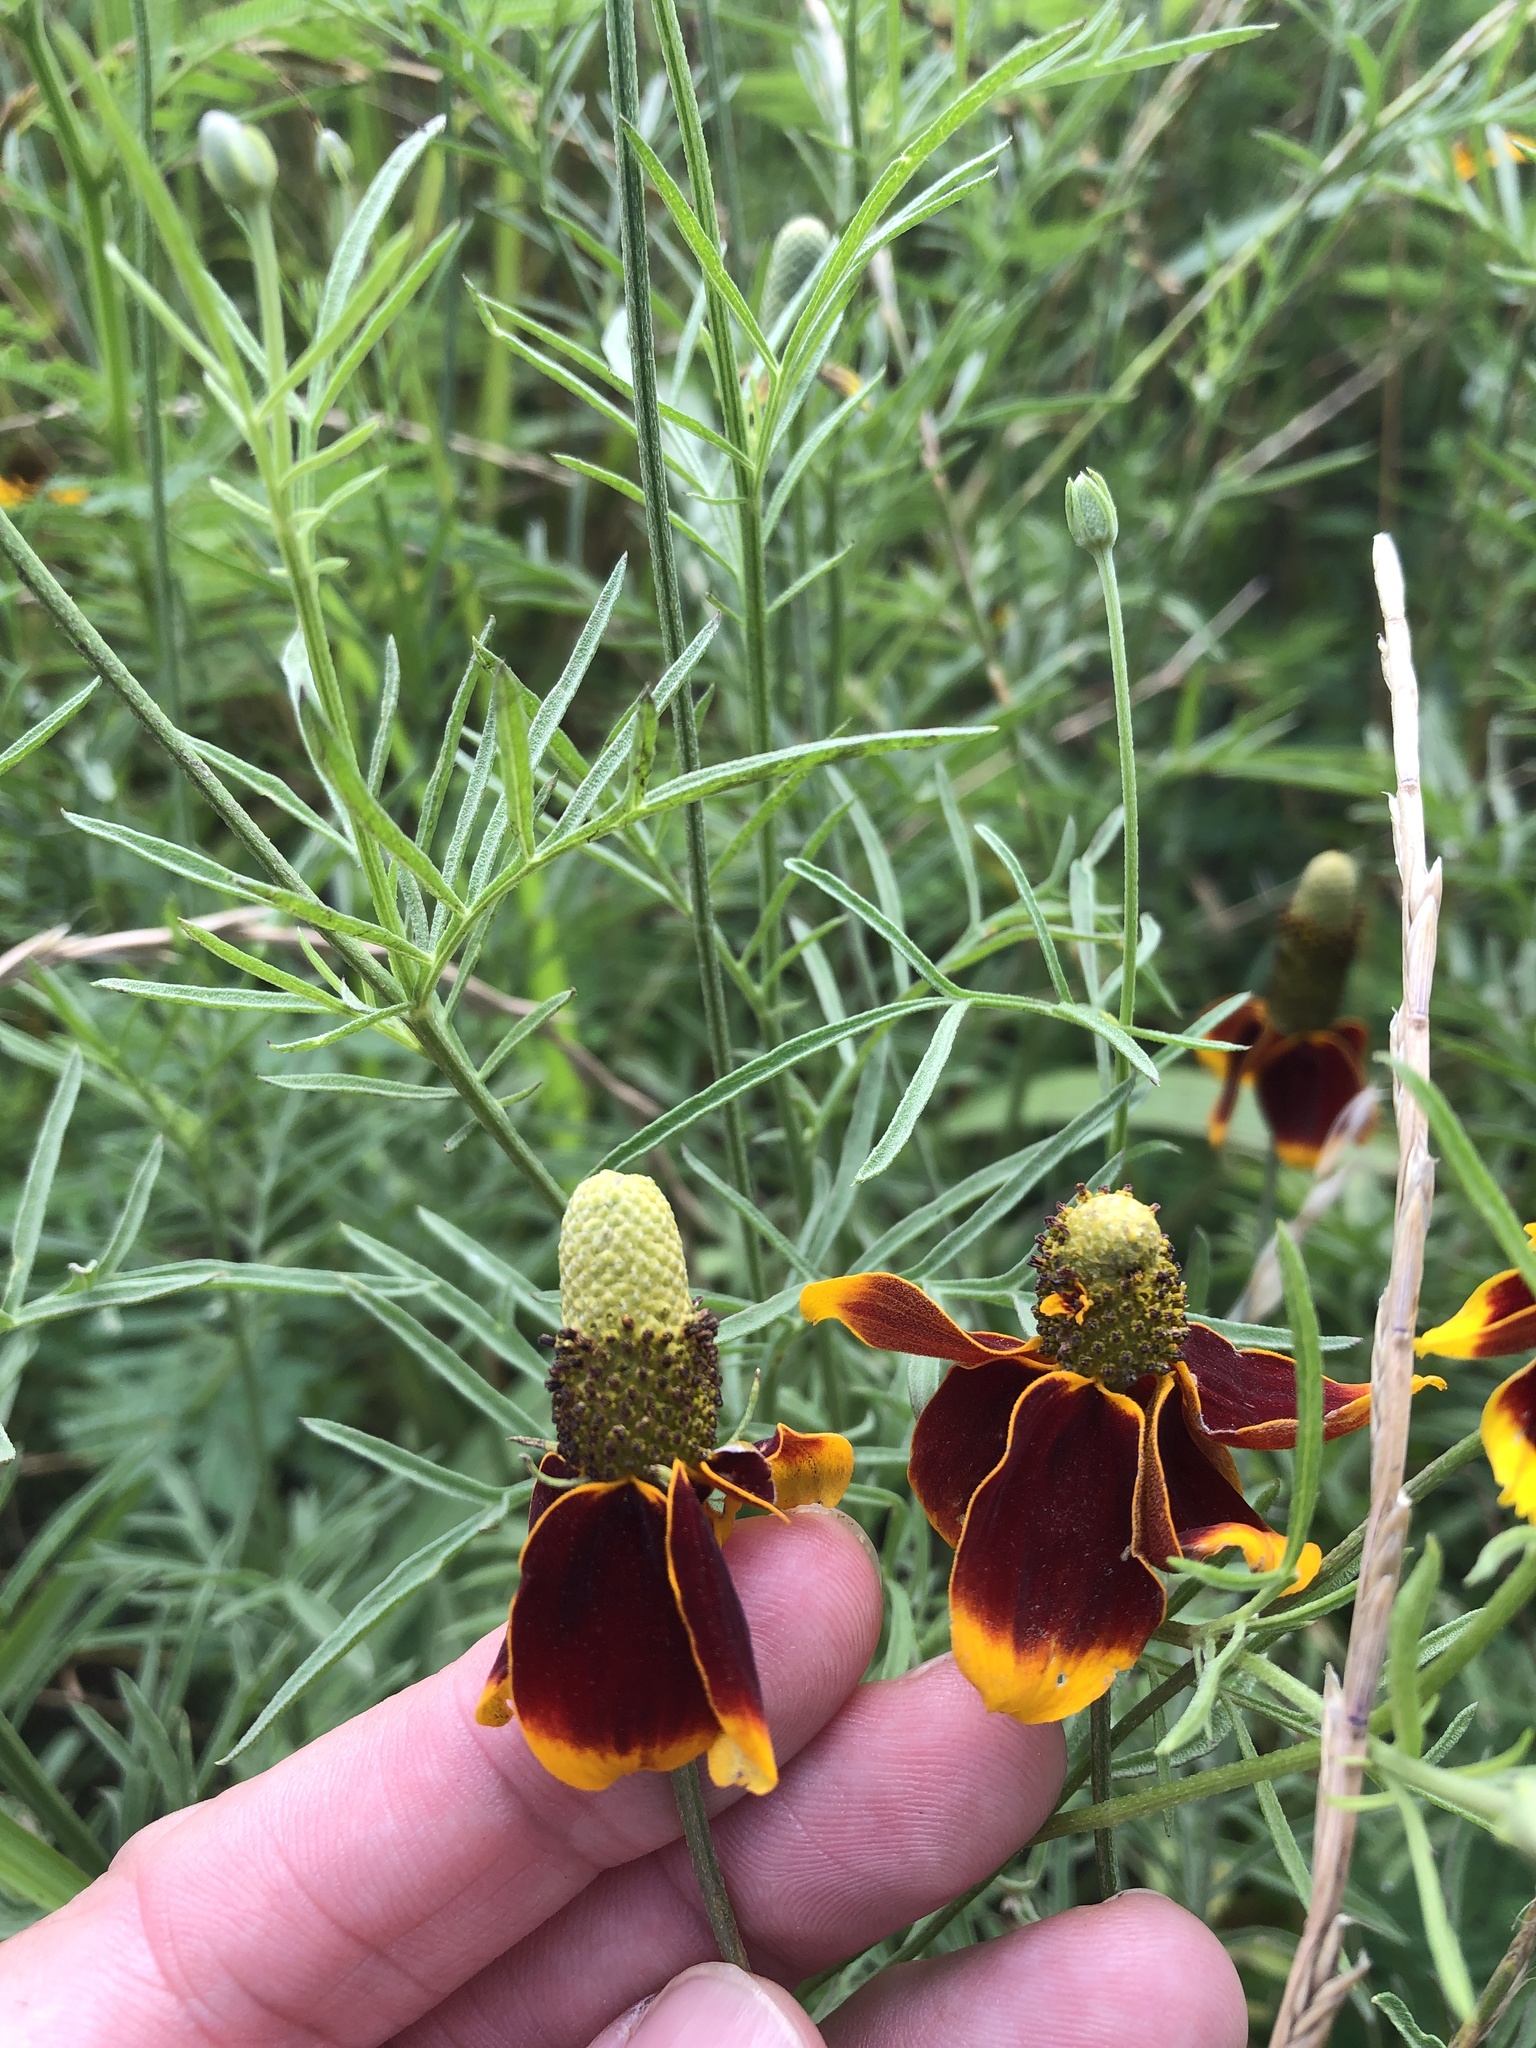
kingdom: Plantae
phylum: Tracheophyta
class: Magnoliopsida
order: Asterales
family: Asteraceae
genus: Ratibida
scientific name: Ratibida columnifera
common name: Prairie coneflower
